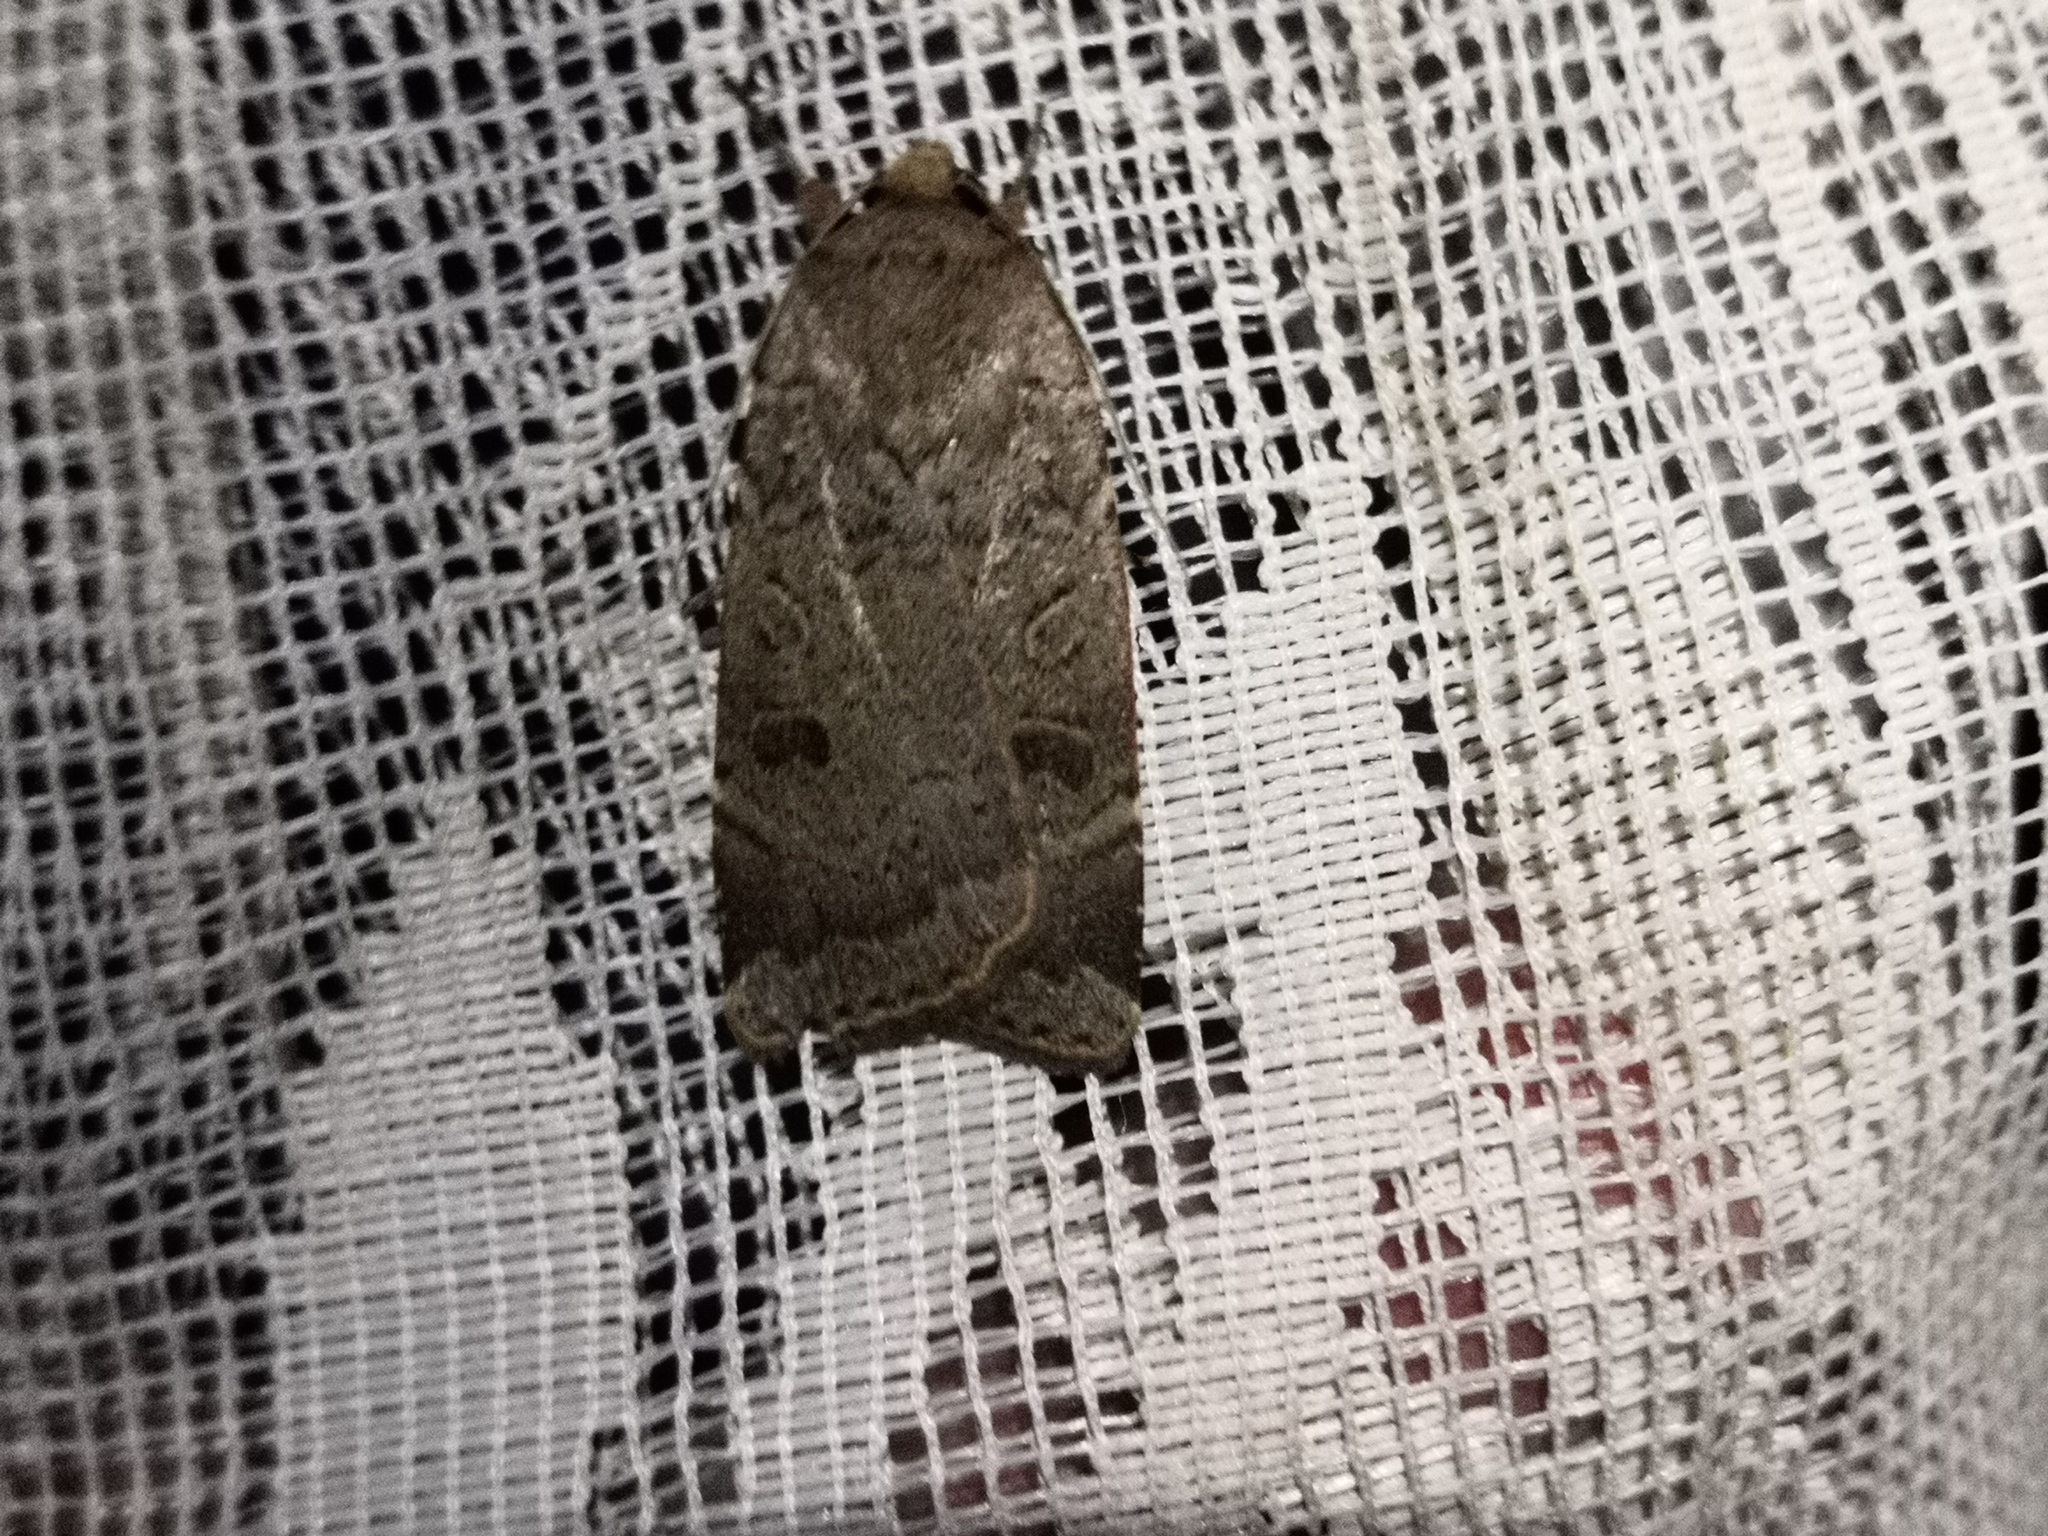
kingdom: Animalia
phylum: Arthropoda
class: Insecta
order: Lepidoptera
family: Noctuidae
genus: Noctua
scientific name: Noctua comes
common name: Lesser yellow underwing
